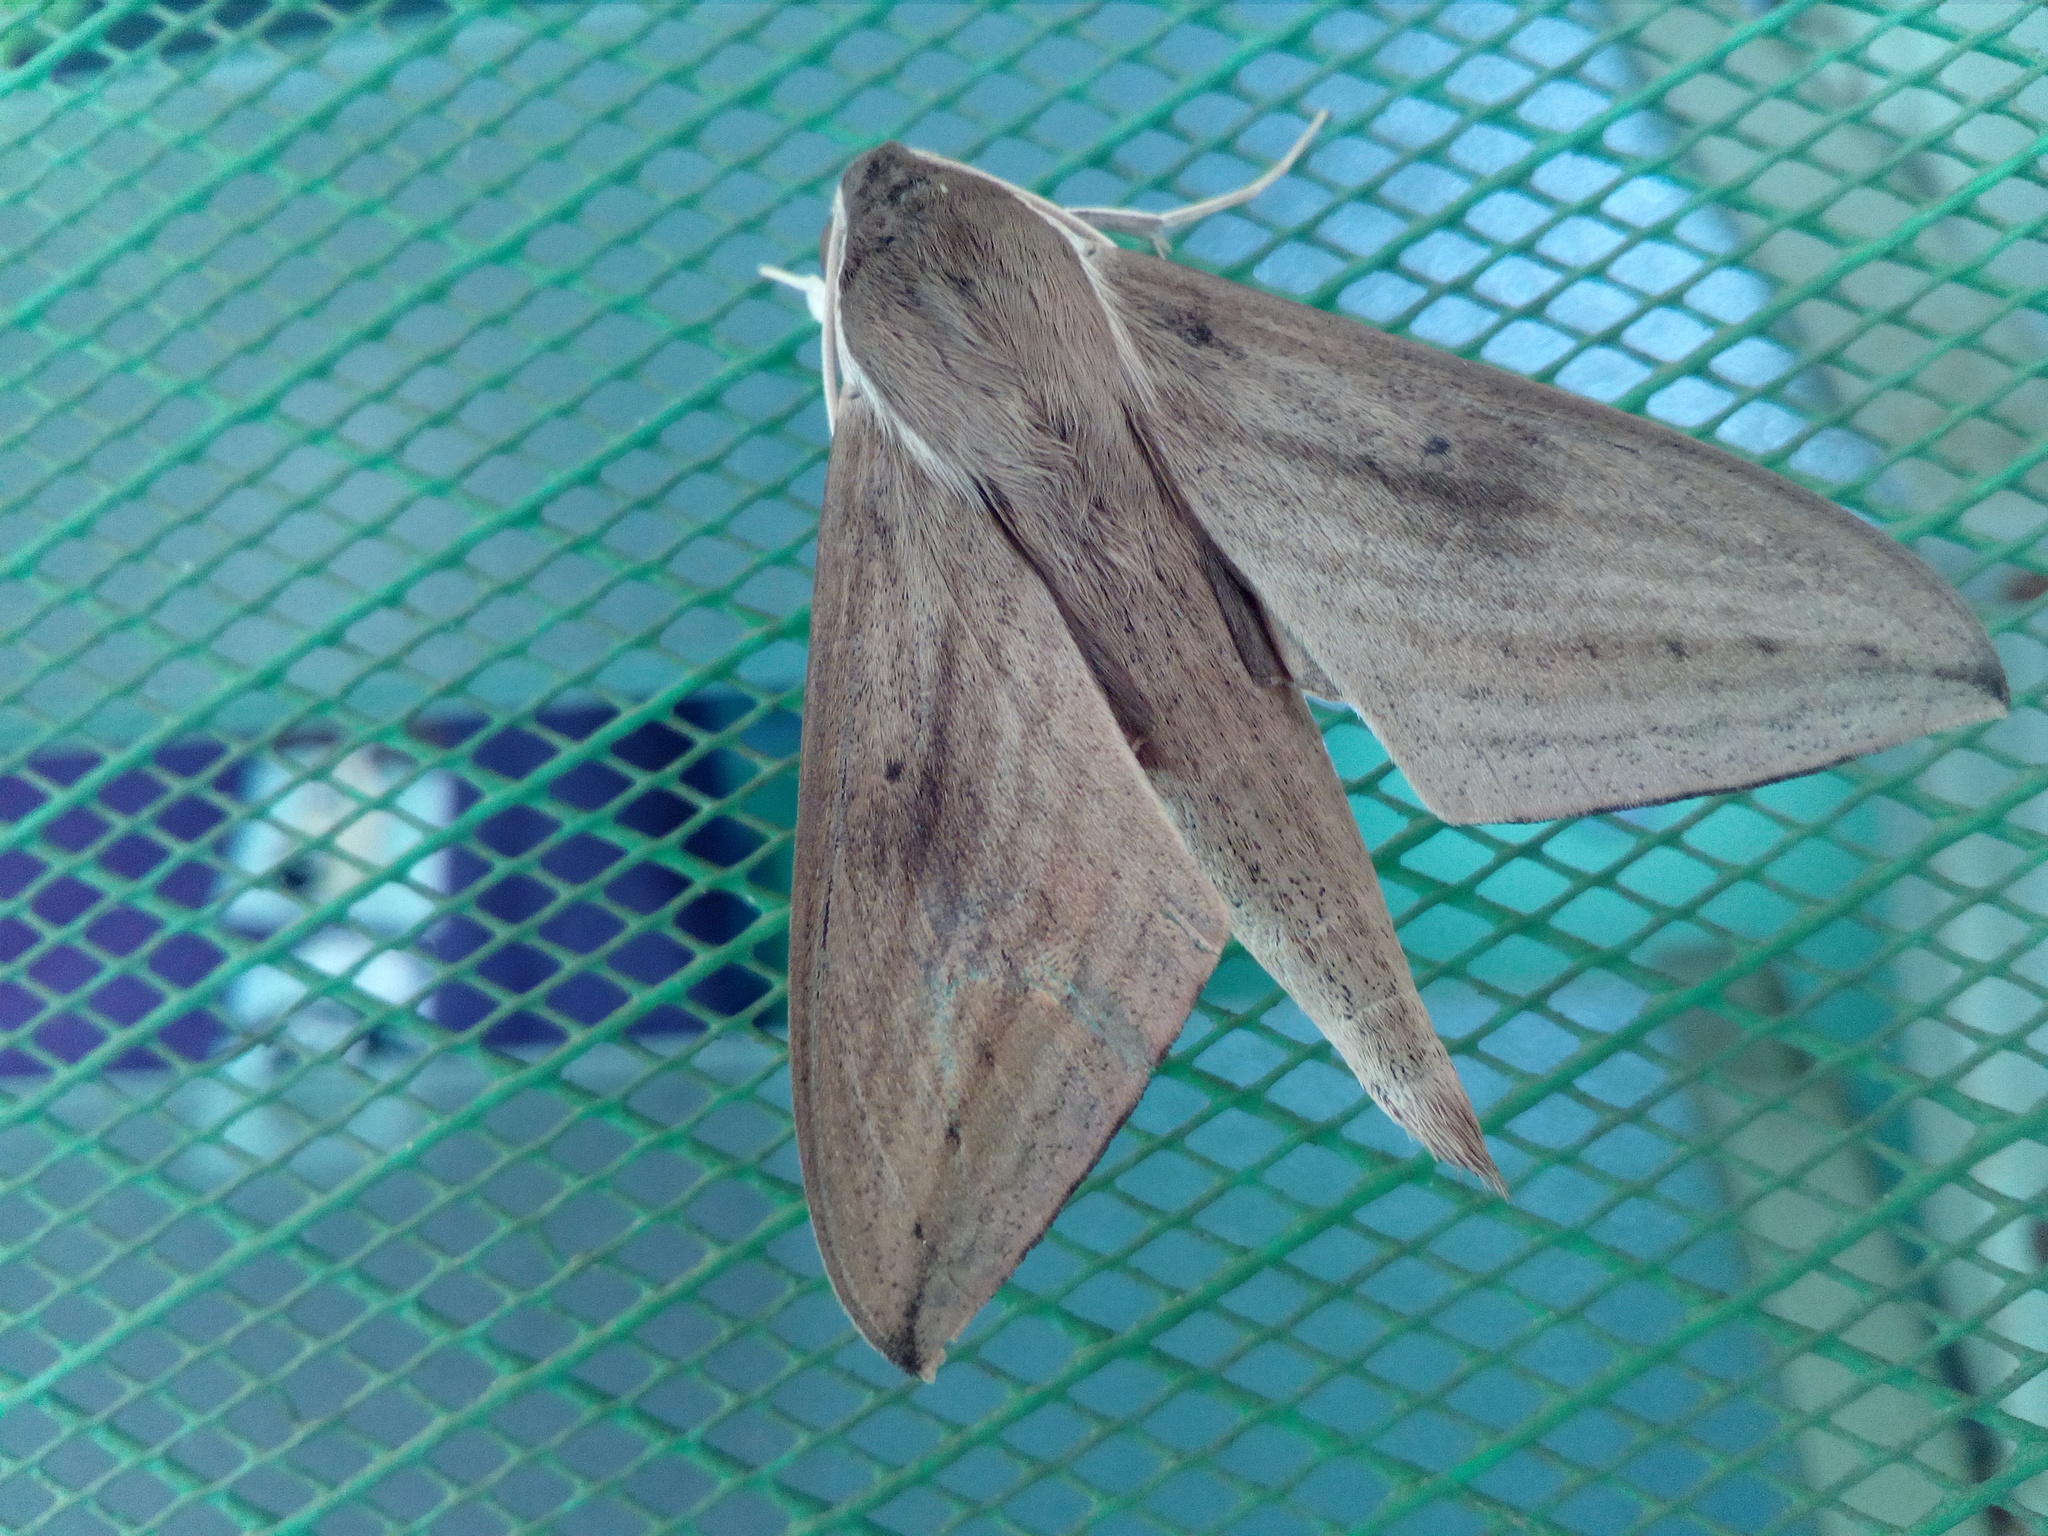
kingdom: Animalia
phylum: Arthropoda
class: Insecta
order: Lepidoptera
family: Sphingidae
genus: Theretra
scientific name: Theretra latreillii
